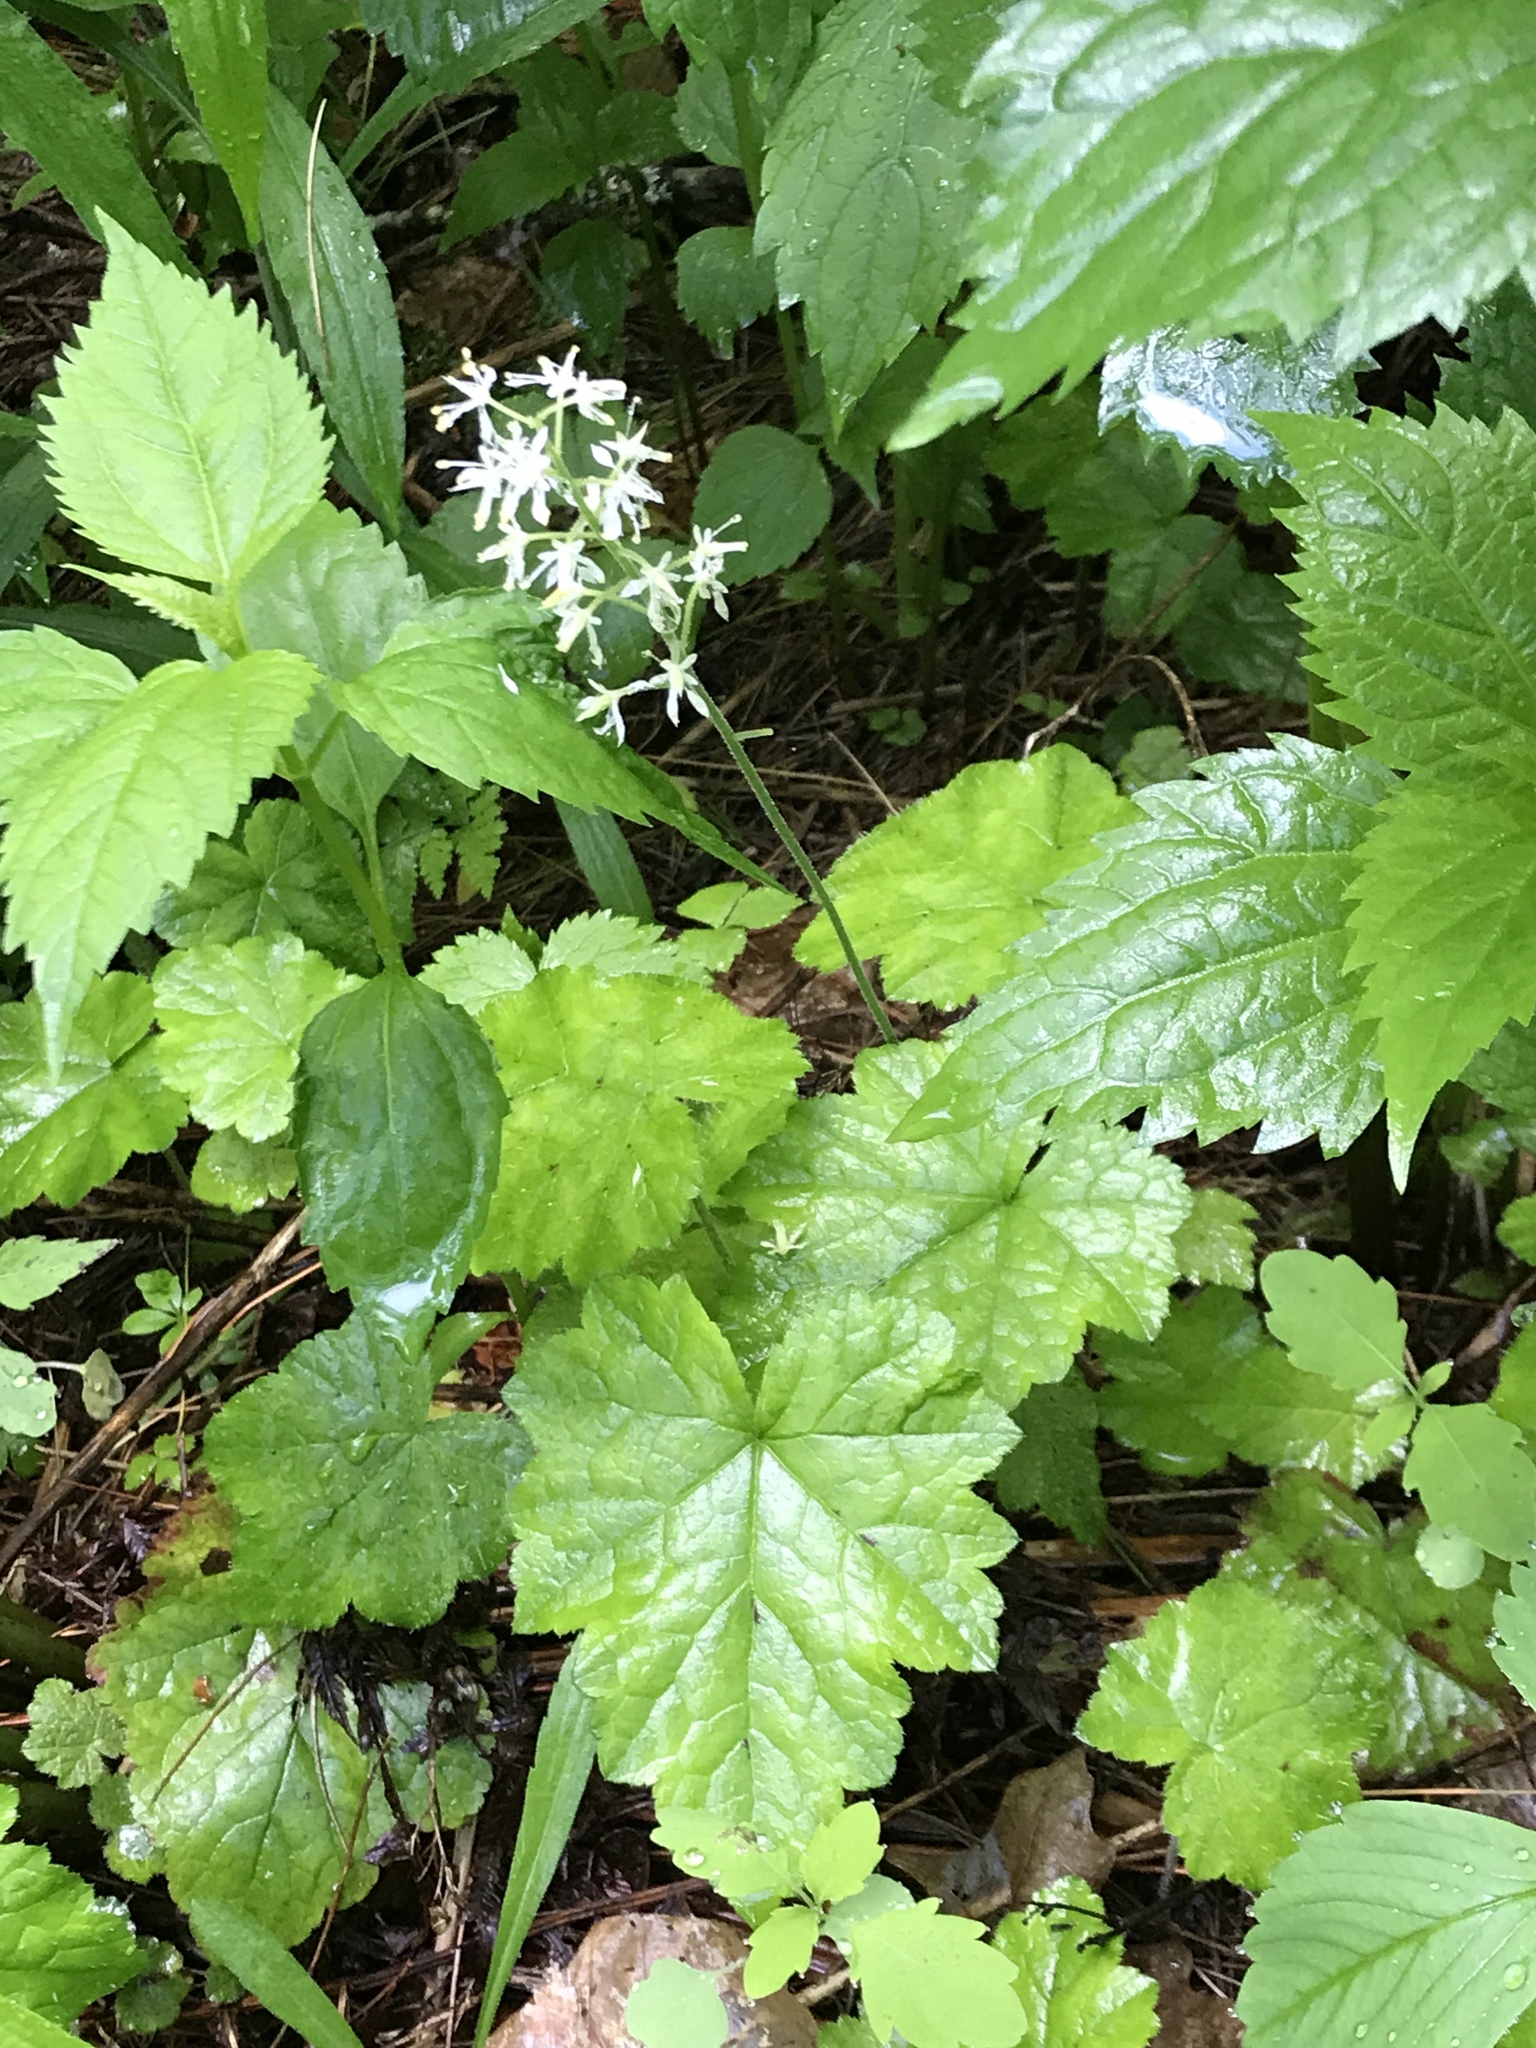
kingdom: Plantae
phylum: Tracheophyta
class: Magnoliopsida
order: Saxifragales
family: Saxifragaceae
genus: Tiarella
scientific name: Tiarella stolonifera
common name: Stoloniferous foamflower
